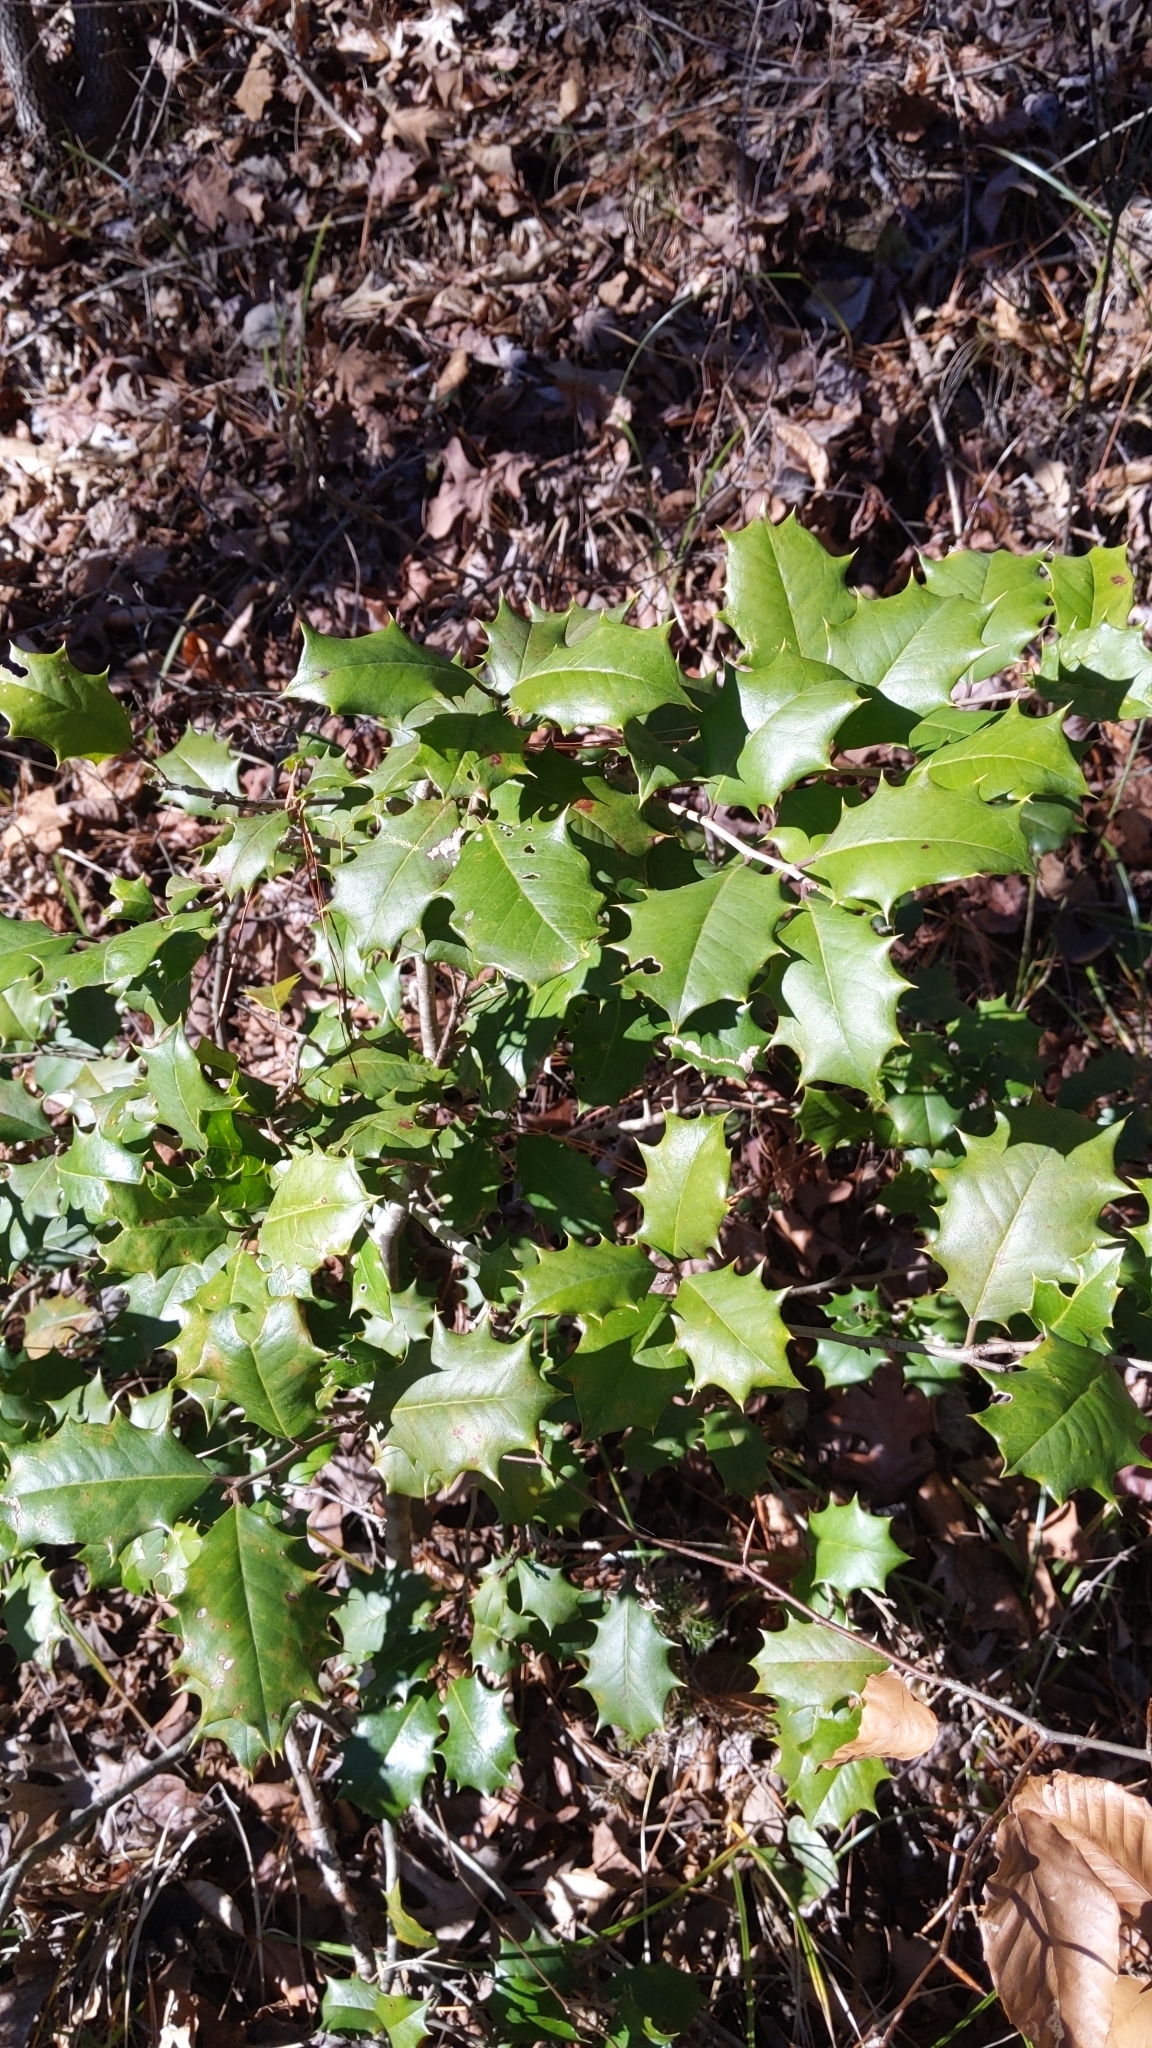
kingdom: Plantae
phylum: Tracheophyta
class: Magnoliopsida
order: Aquifoliales
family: Aquifoliaceae
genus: Ilex
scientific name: Ilex opaca
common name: American holly
